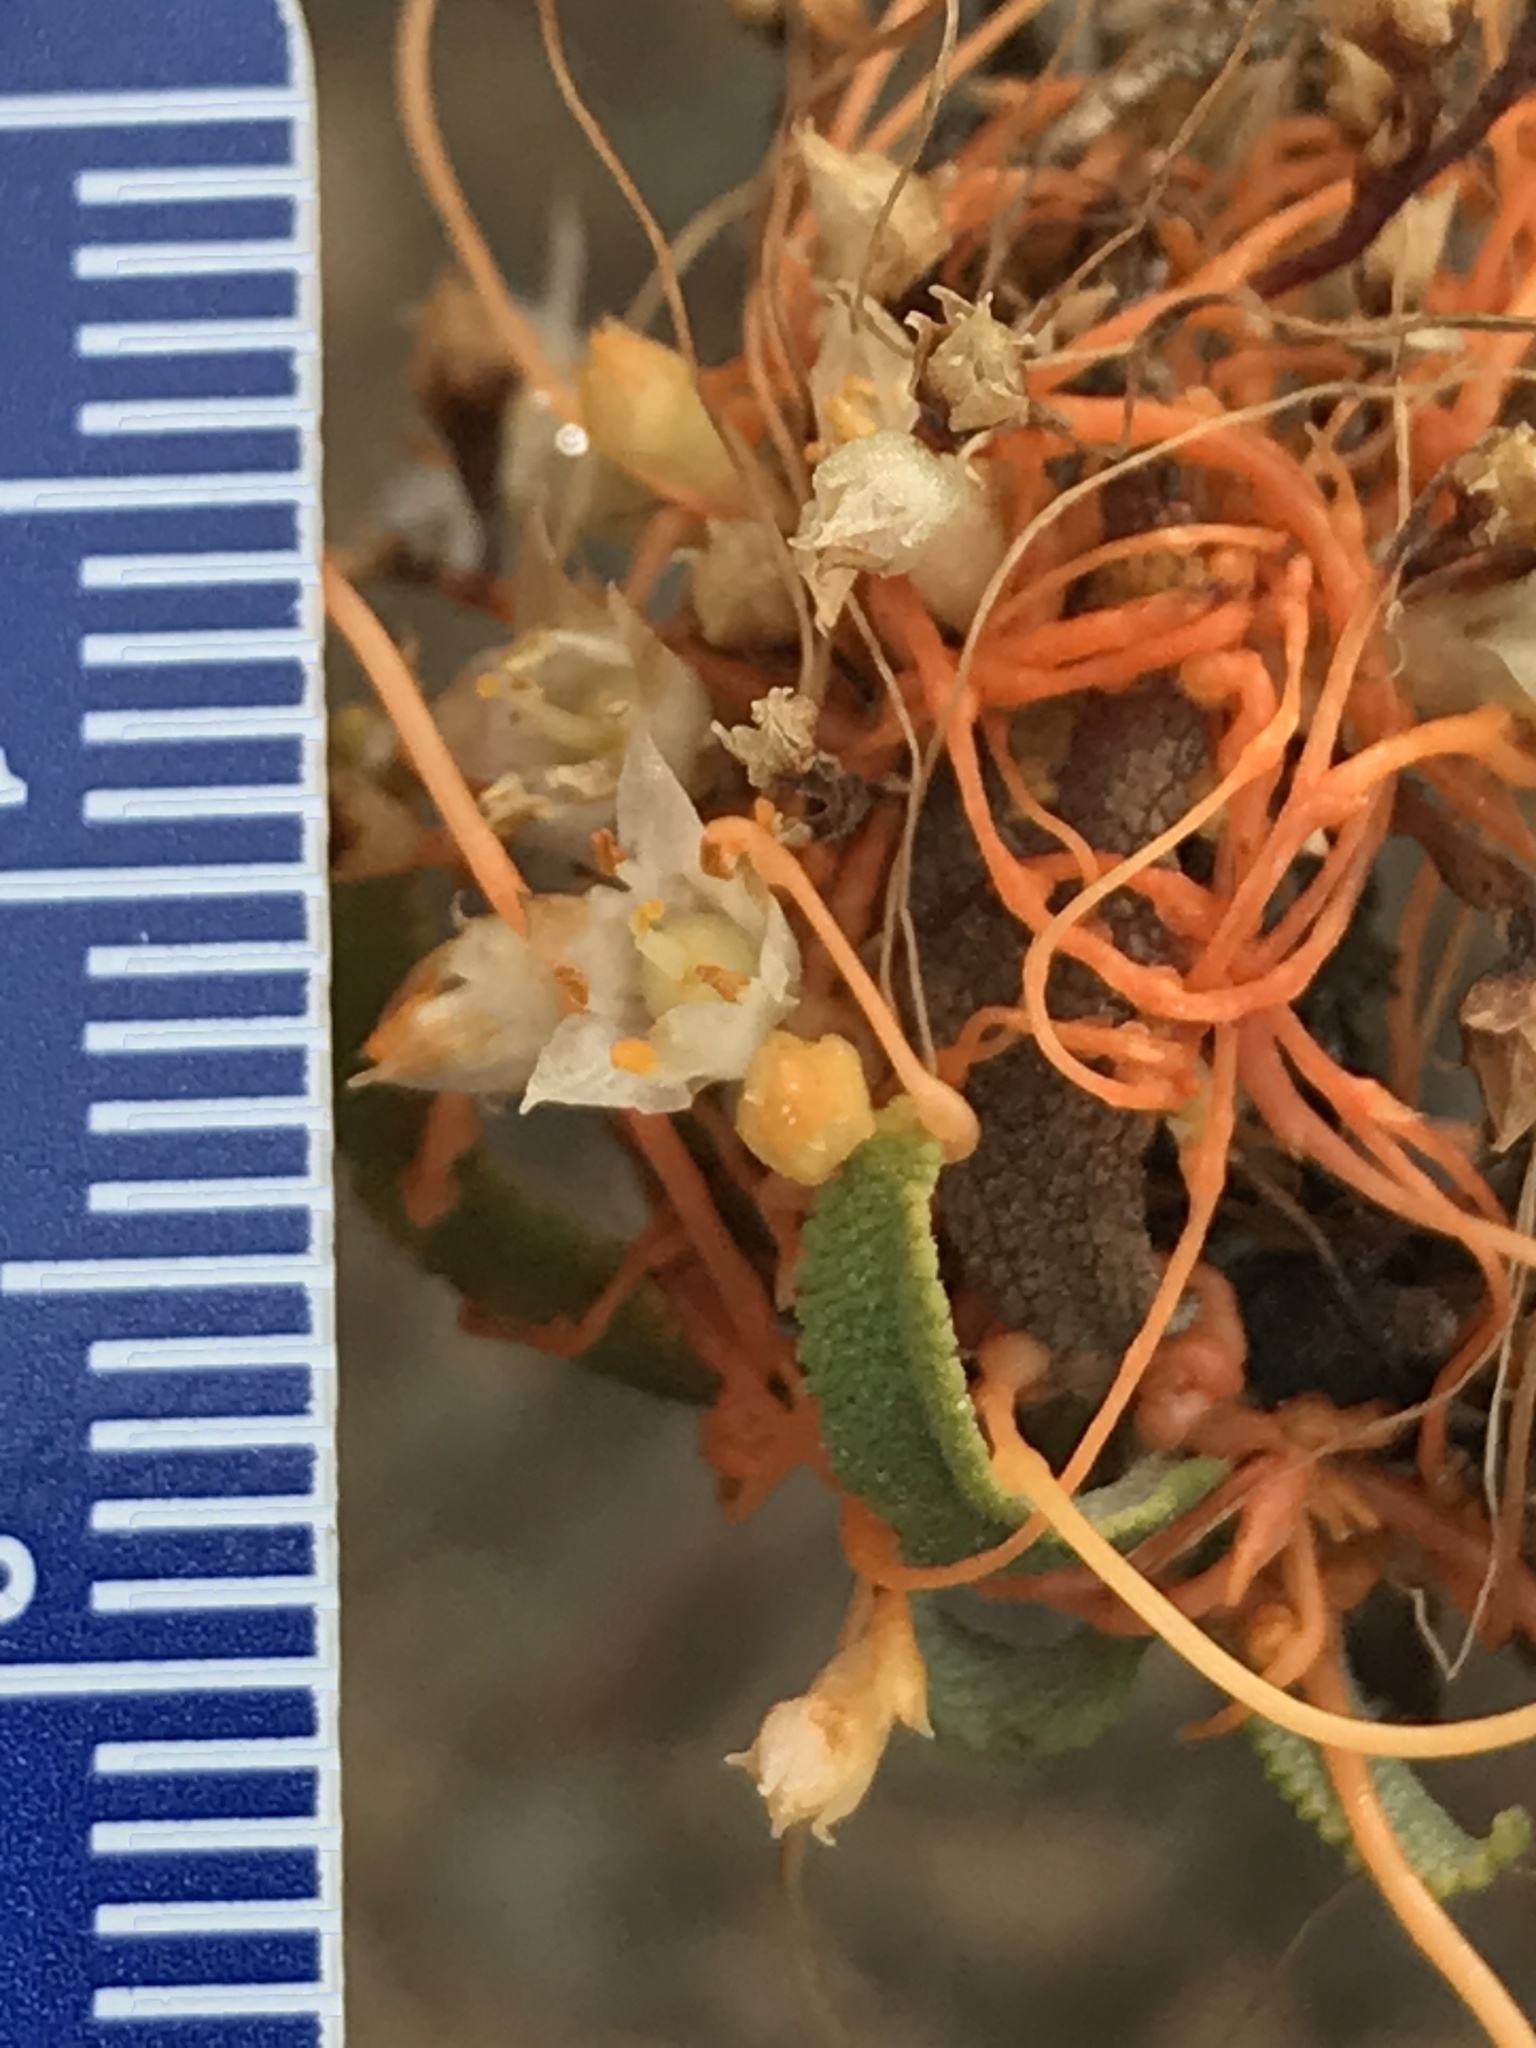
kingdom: Plantae
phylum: Tracheophyta
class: Magnoliopsida
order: Solanales
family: Convolvulaceae
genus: Cuscuta
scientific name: Cuscuta californica
